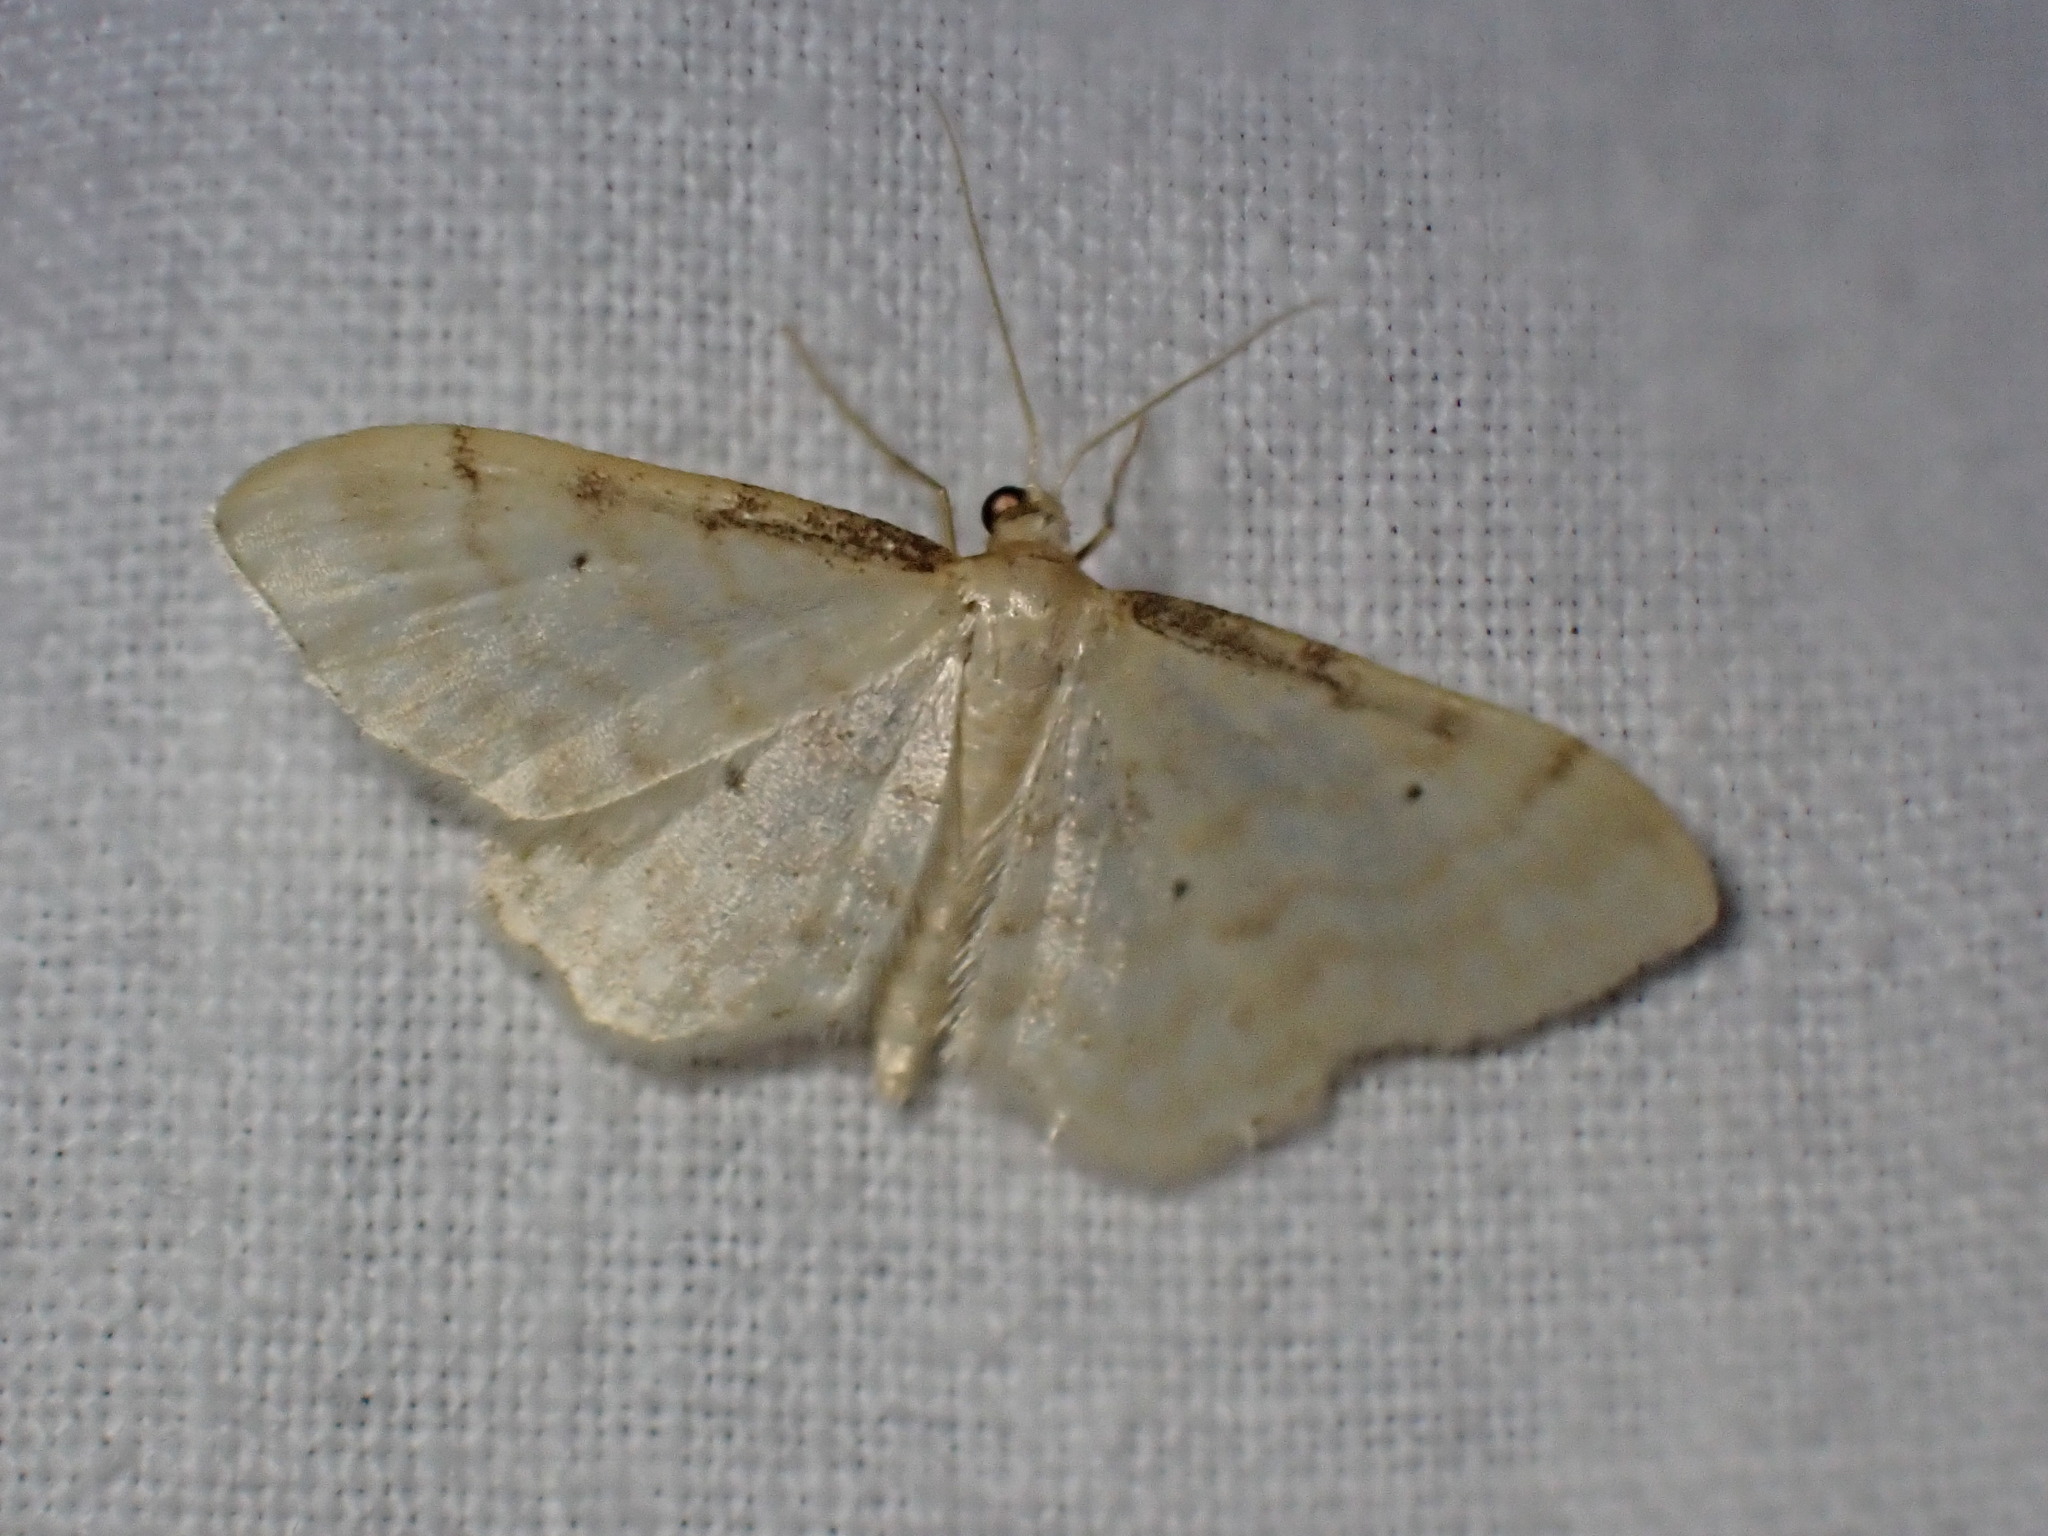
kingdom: Animalia
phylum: Arthropoda
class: Insecta
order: Lepidoptera
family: Geometridae
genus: Idaea
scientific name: Idaea fuscovenosa
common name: Dwarf cream wave
